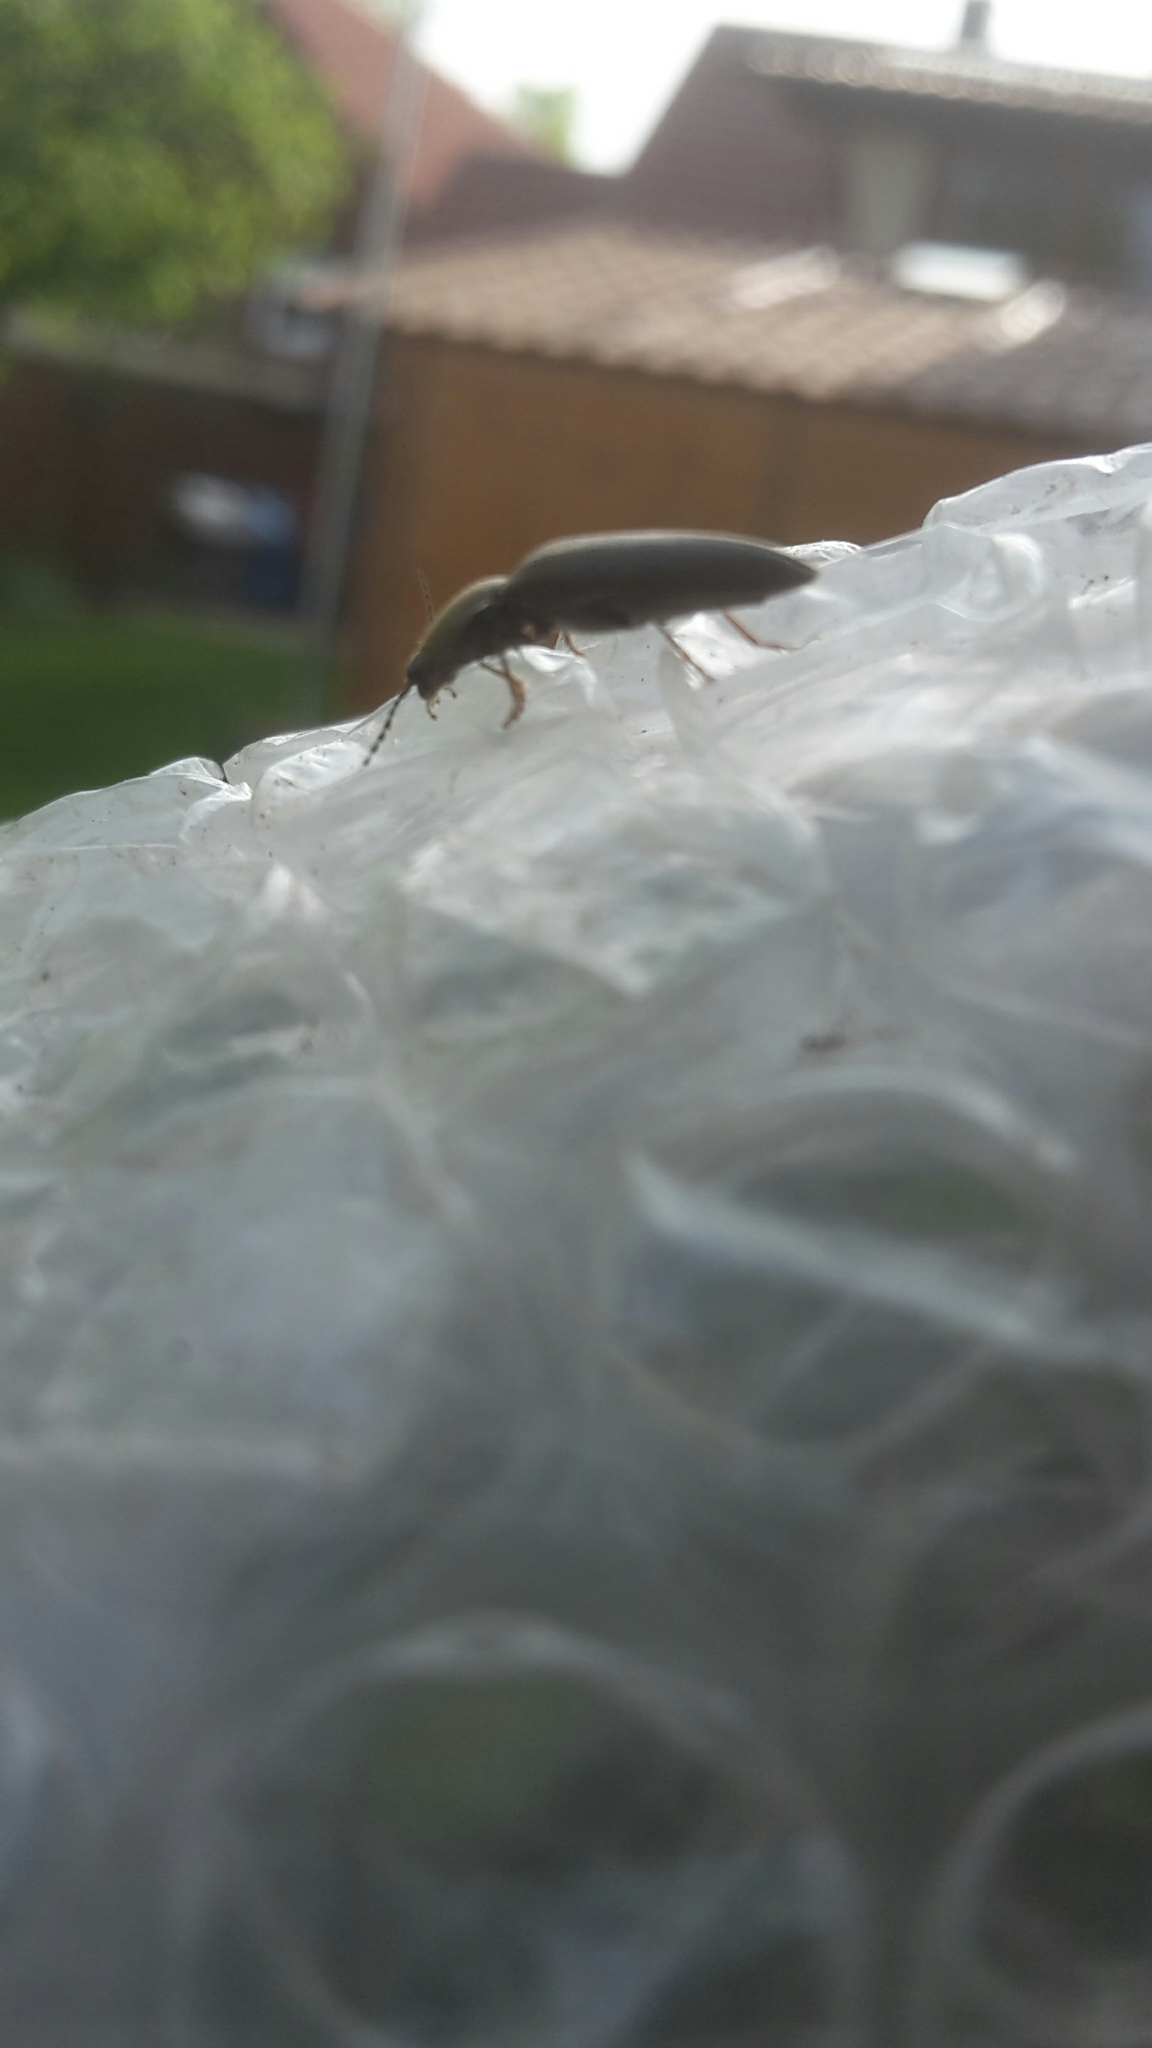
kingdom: Animalia
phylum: Arthropoda
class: Insecta
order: Coleoptera
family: Elateridae
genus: Athous
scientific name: Athous haemorrhoidalis
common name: Red-brown click beetle
